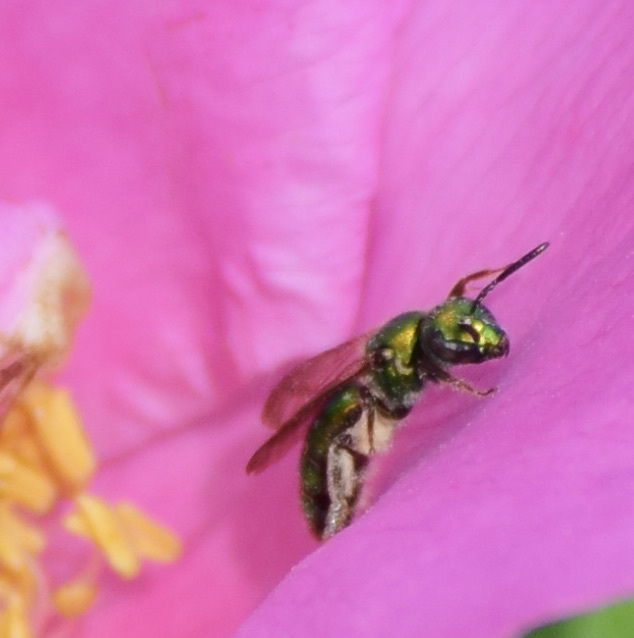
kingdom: Animalia
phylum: Arthropoda
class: Insecta
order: Hymenoptera
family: Halictidae
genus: Augochlora
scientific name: Augochlora pura
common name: Pure green sweat bee
